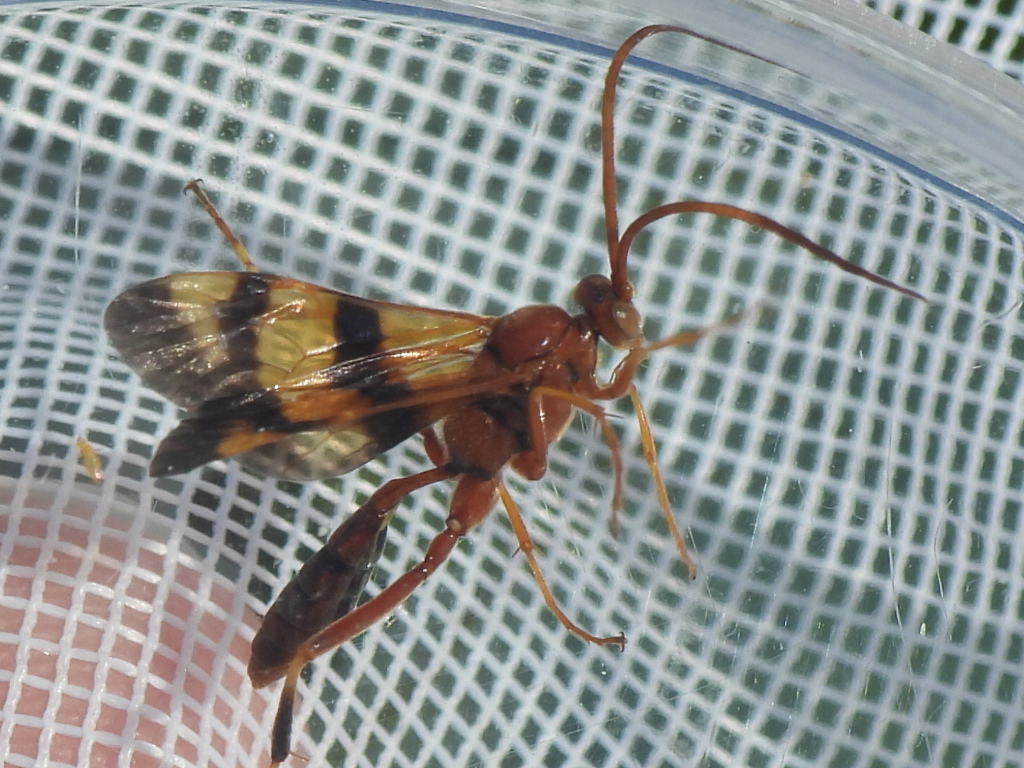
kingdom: Animalia
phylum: Arthropoda
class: Insecta
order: Hymenoptera
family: Ichneumonidae
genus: Compsocryptus
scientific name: Compsocryptus texensis
